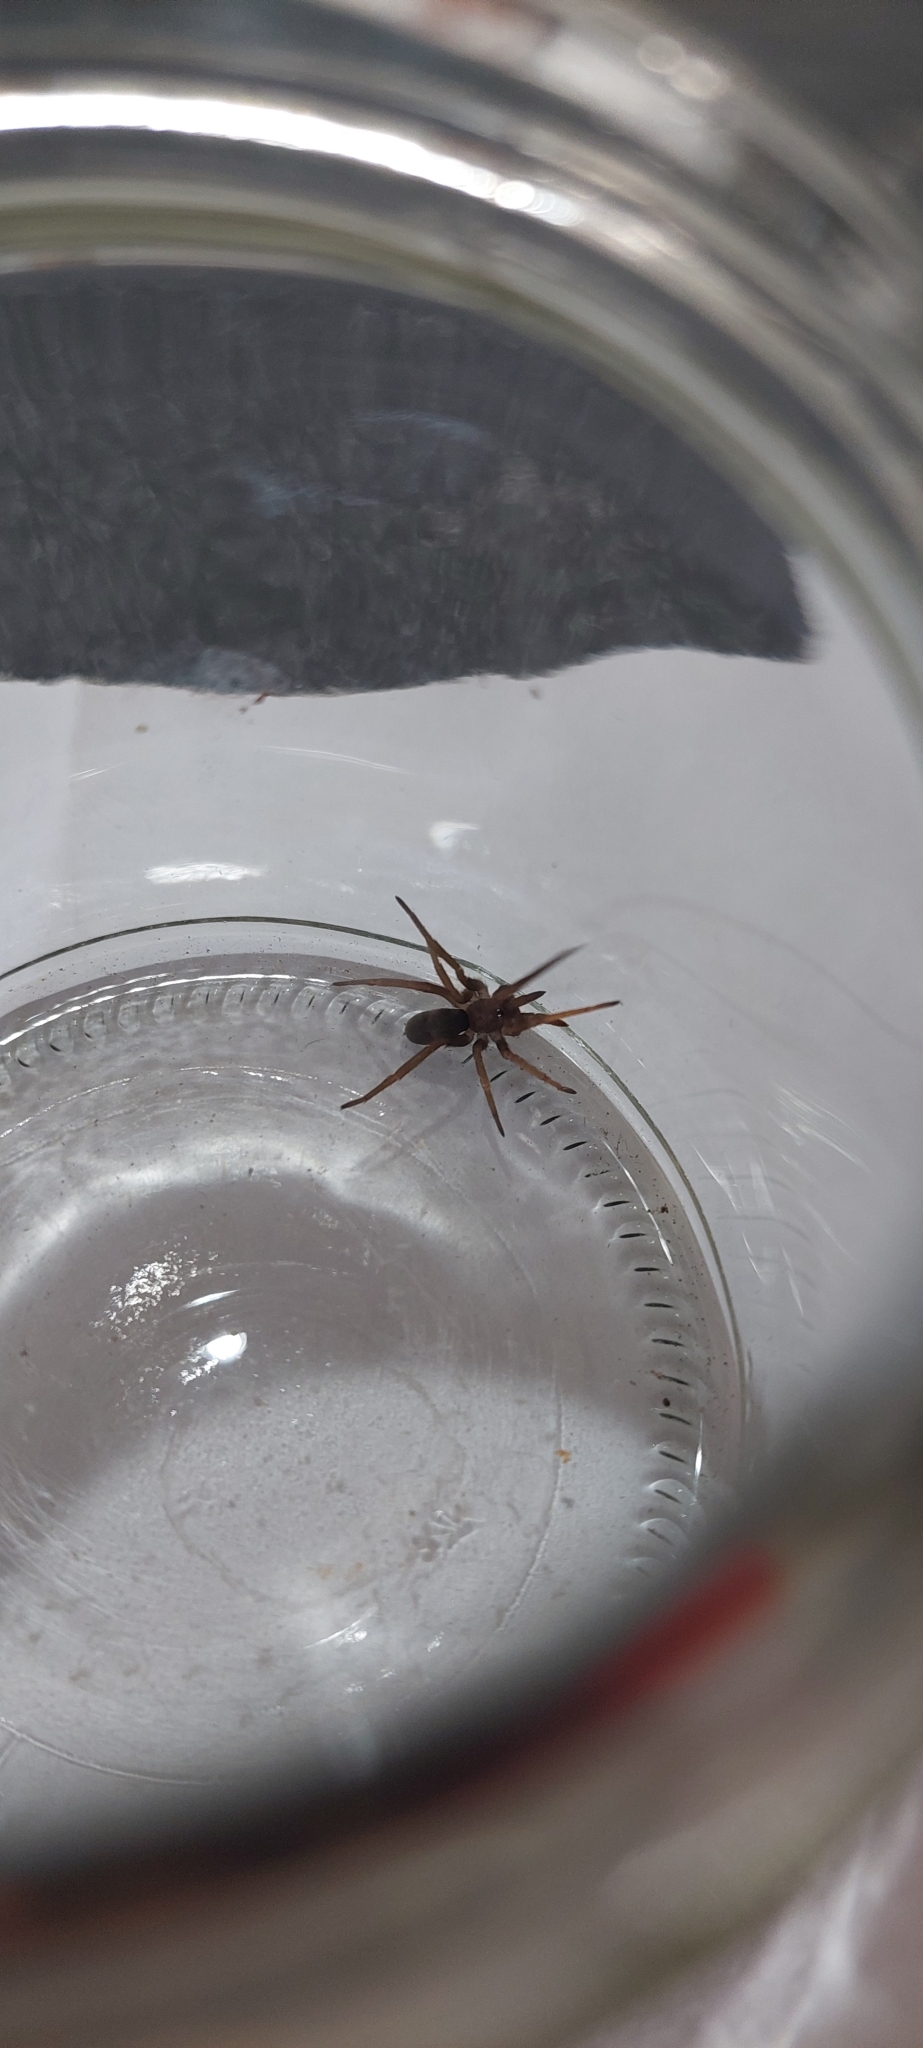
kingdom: Animalia
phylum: Arthropoda
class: Arachnida
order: Araneae
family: Filistatidae
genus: Kukulcania
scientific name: Kukulcania hibernalis
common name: Crevice weaver
